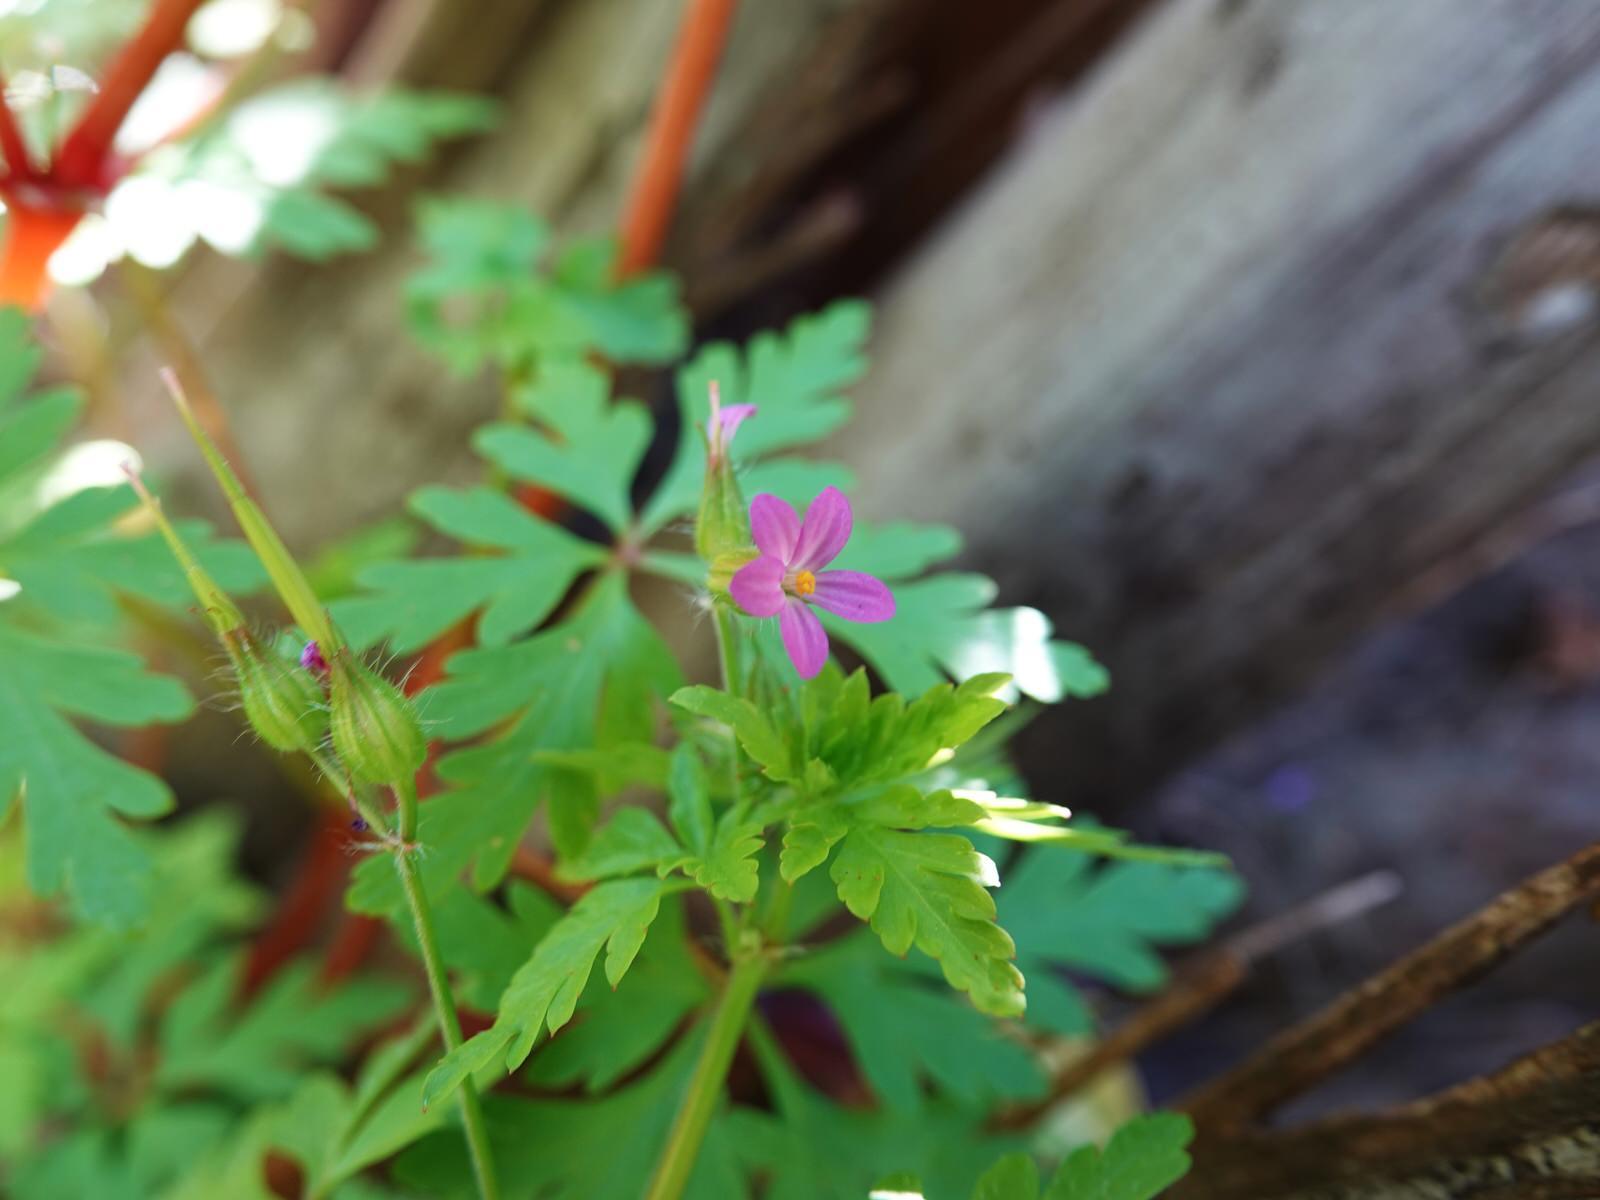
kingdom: Plantae
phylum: Tracheophyta
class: Magnoliopsida
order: Geraniales
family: Geraniaceae
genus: Geranium
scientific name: Geranium purpureum
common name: Little-robin
